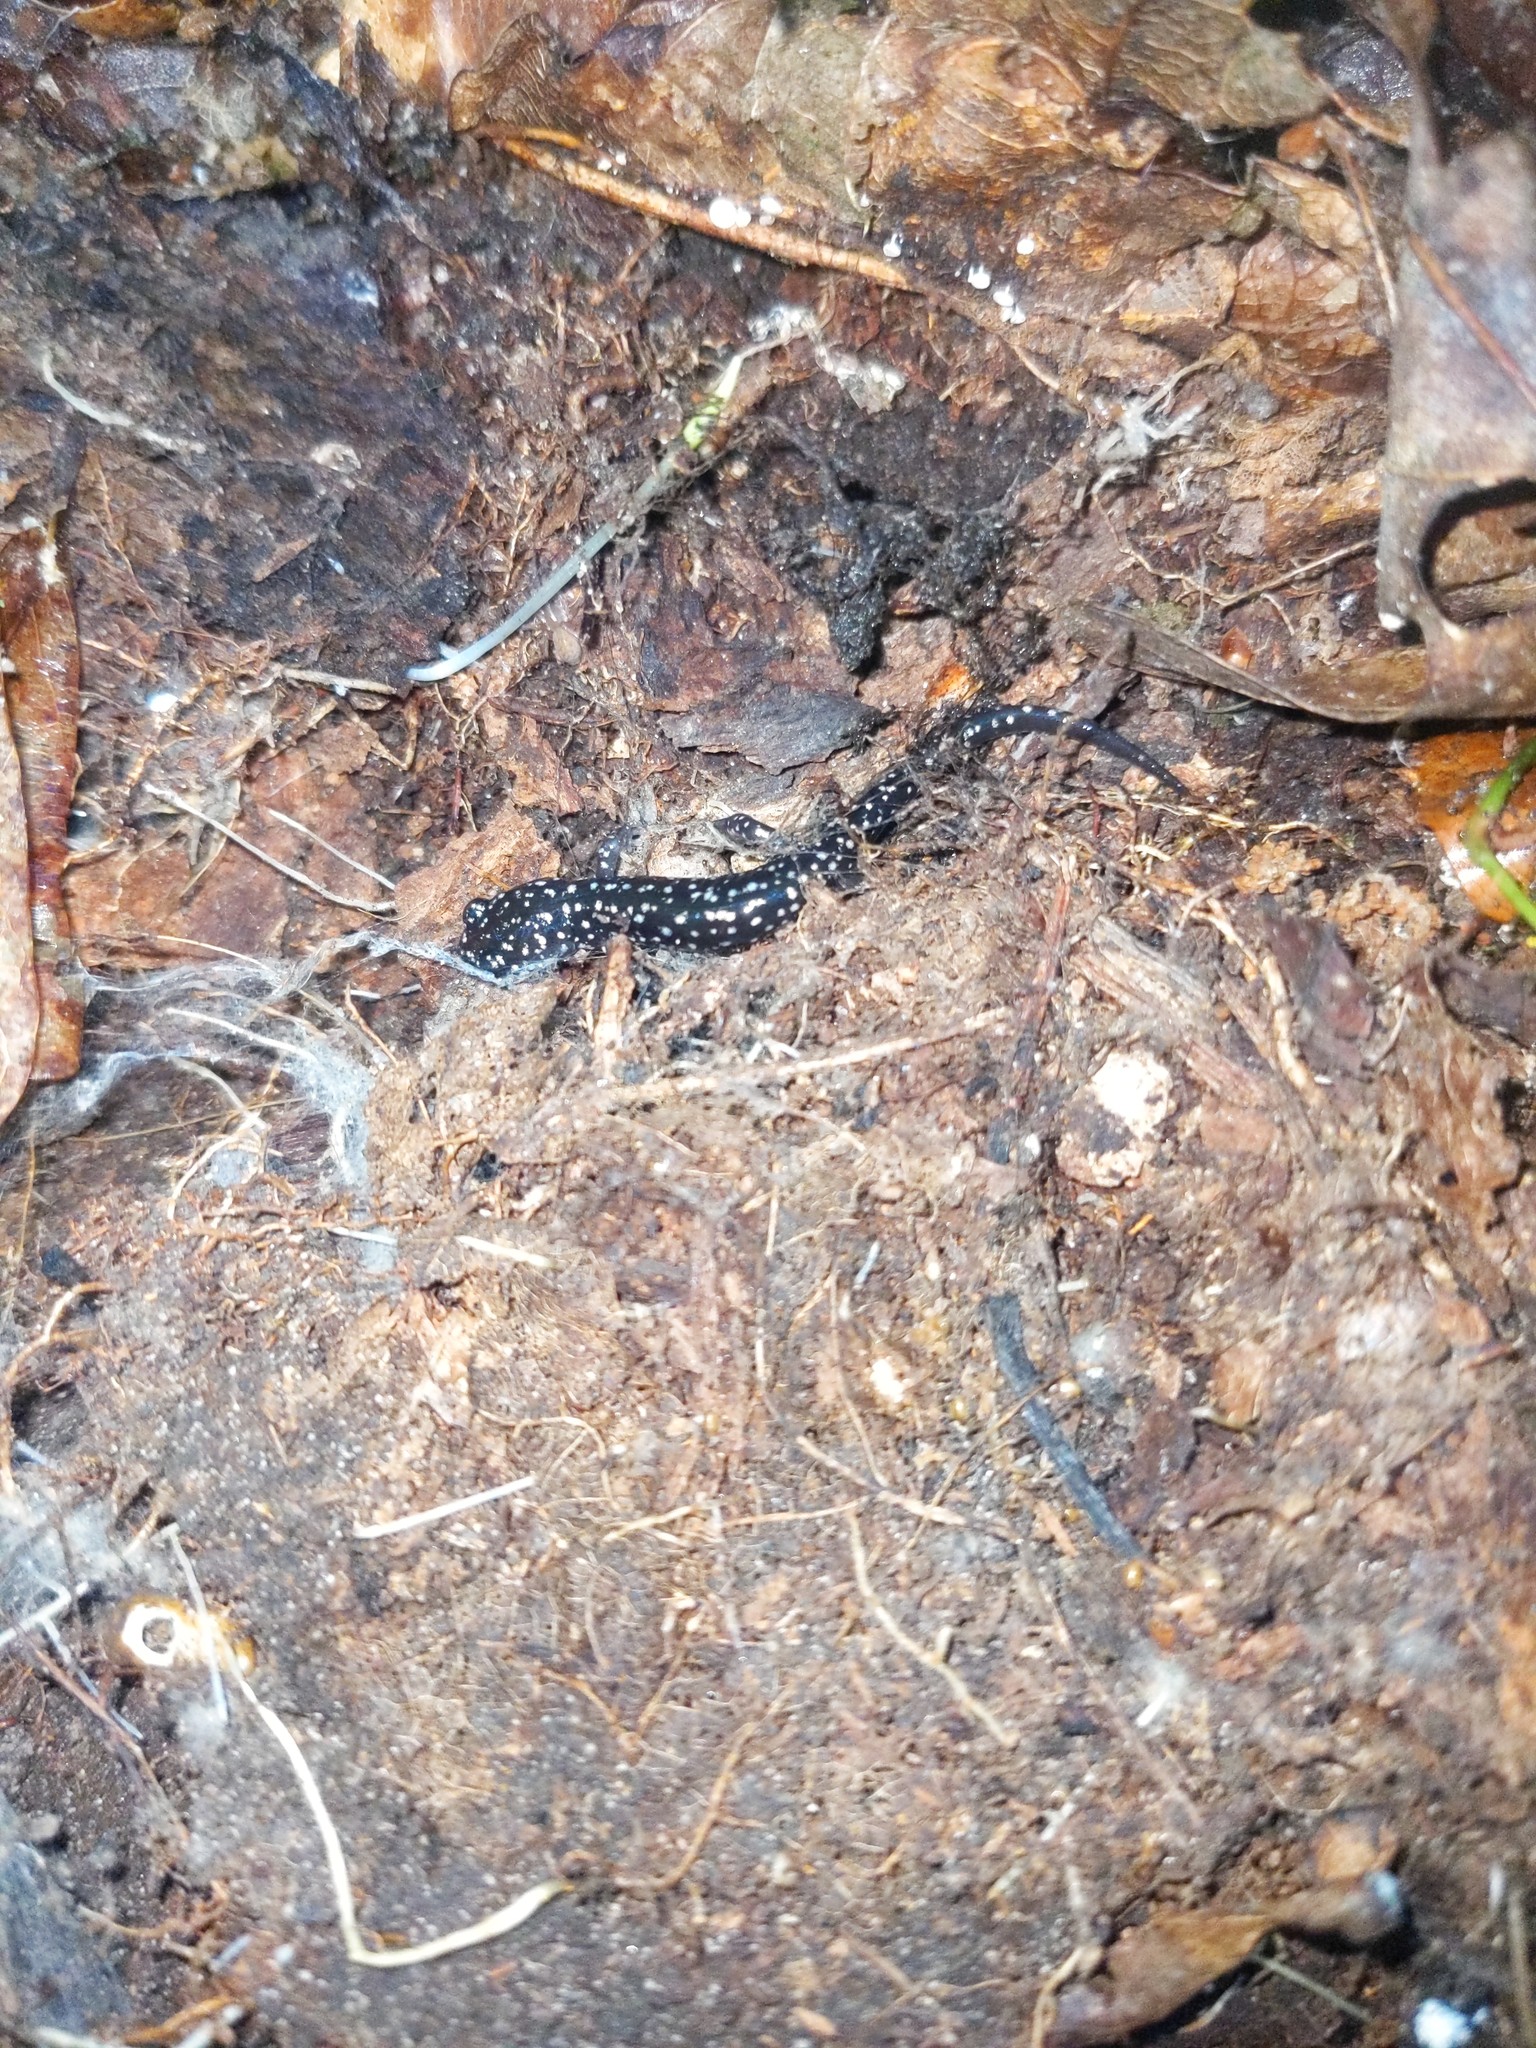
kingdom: Animalia
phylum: Chordata
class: Amphibia
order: Caudata
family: Plethodontidae
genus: Plethodon
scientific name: Plethodon glutinosus
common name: Northern slimy salamander
